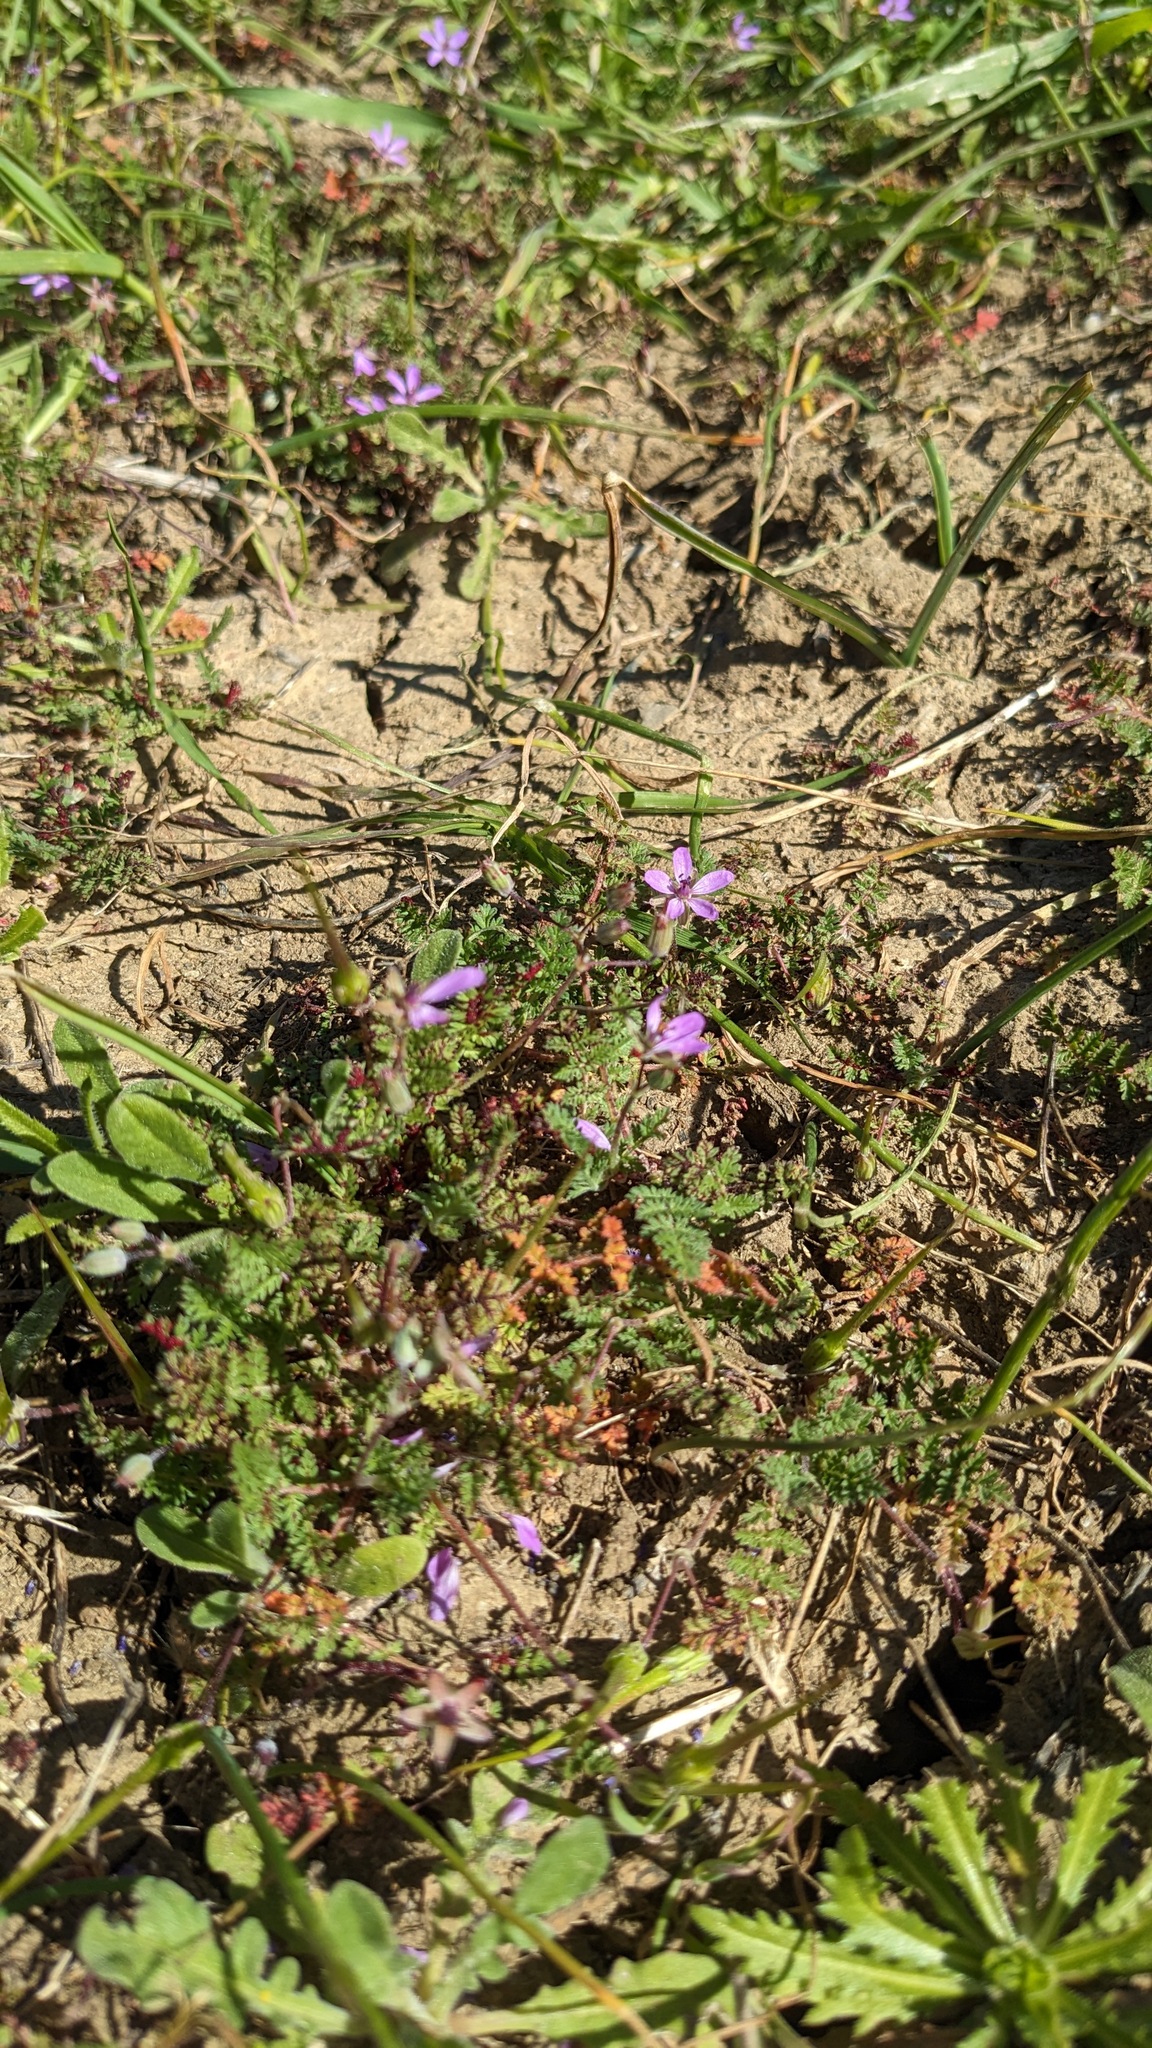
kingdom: Plantae
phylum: Tracheophyta
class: Magnoliopsida
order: Geraniales
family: Geraniaceae
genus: Erodium
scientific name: Erodium cicutarium
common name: Common stork's-bill
